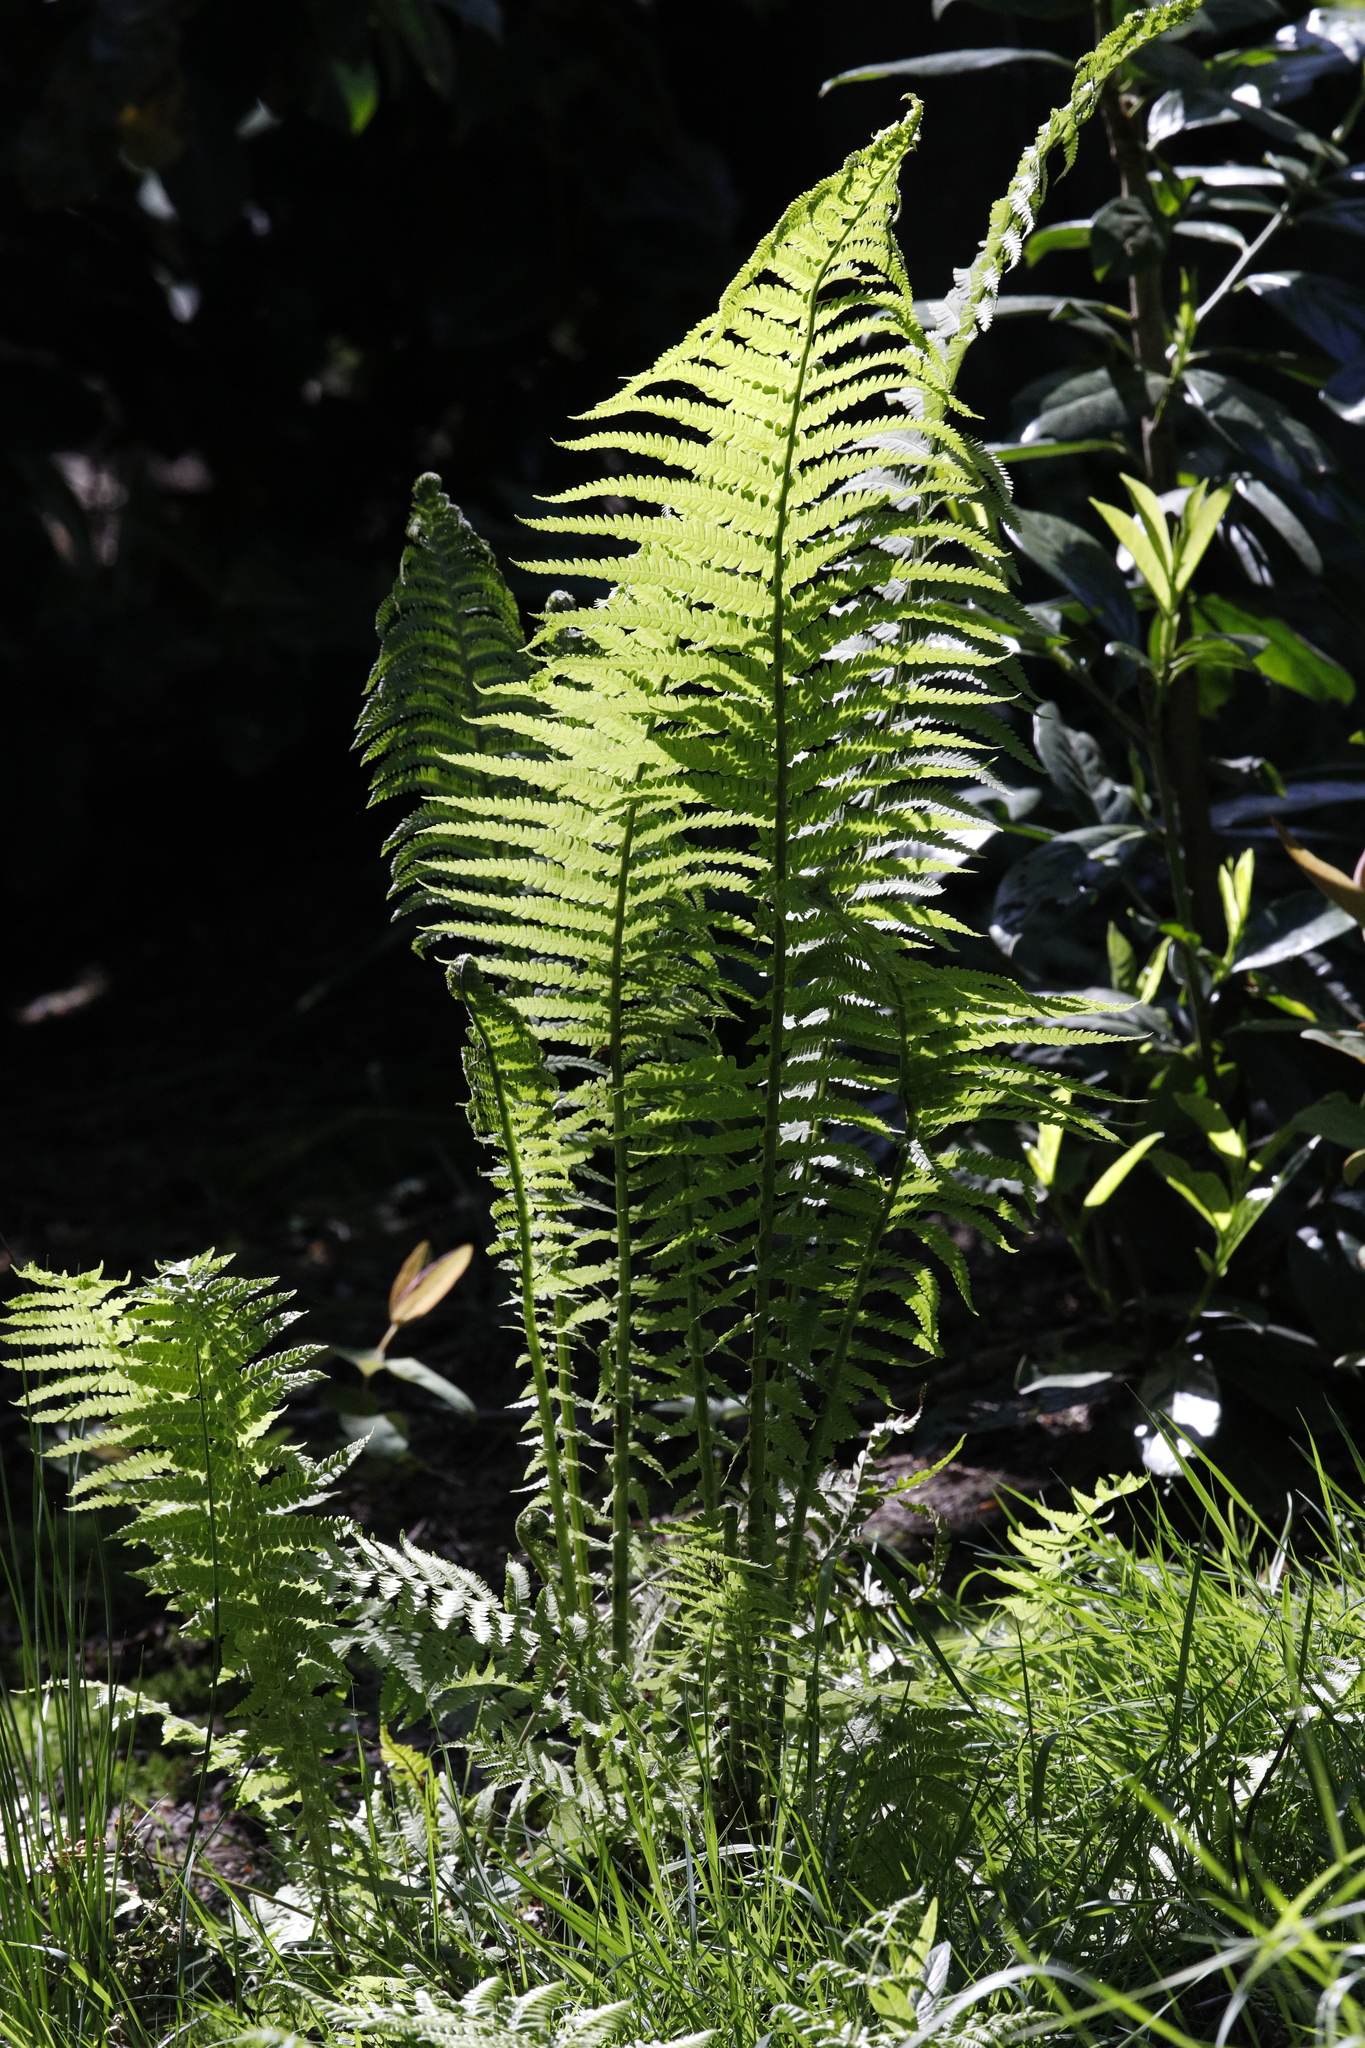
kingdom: Plantae
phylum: Tracheophyta
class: Polypodiopsida
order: Polypodiales
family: Onocleaceae
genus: Matteuccia
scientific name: Matteuccia struthiopteris
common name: Ostrich fern
